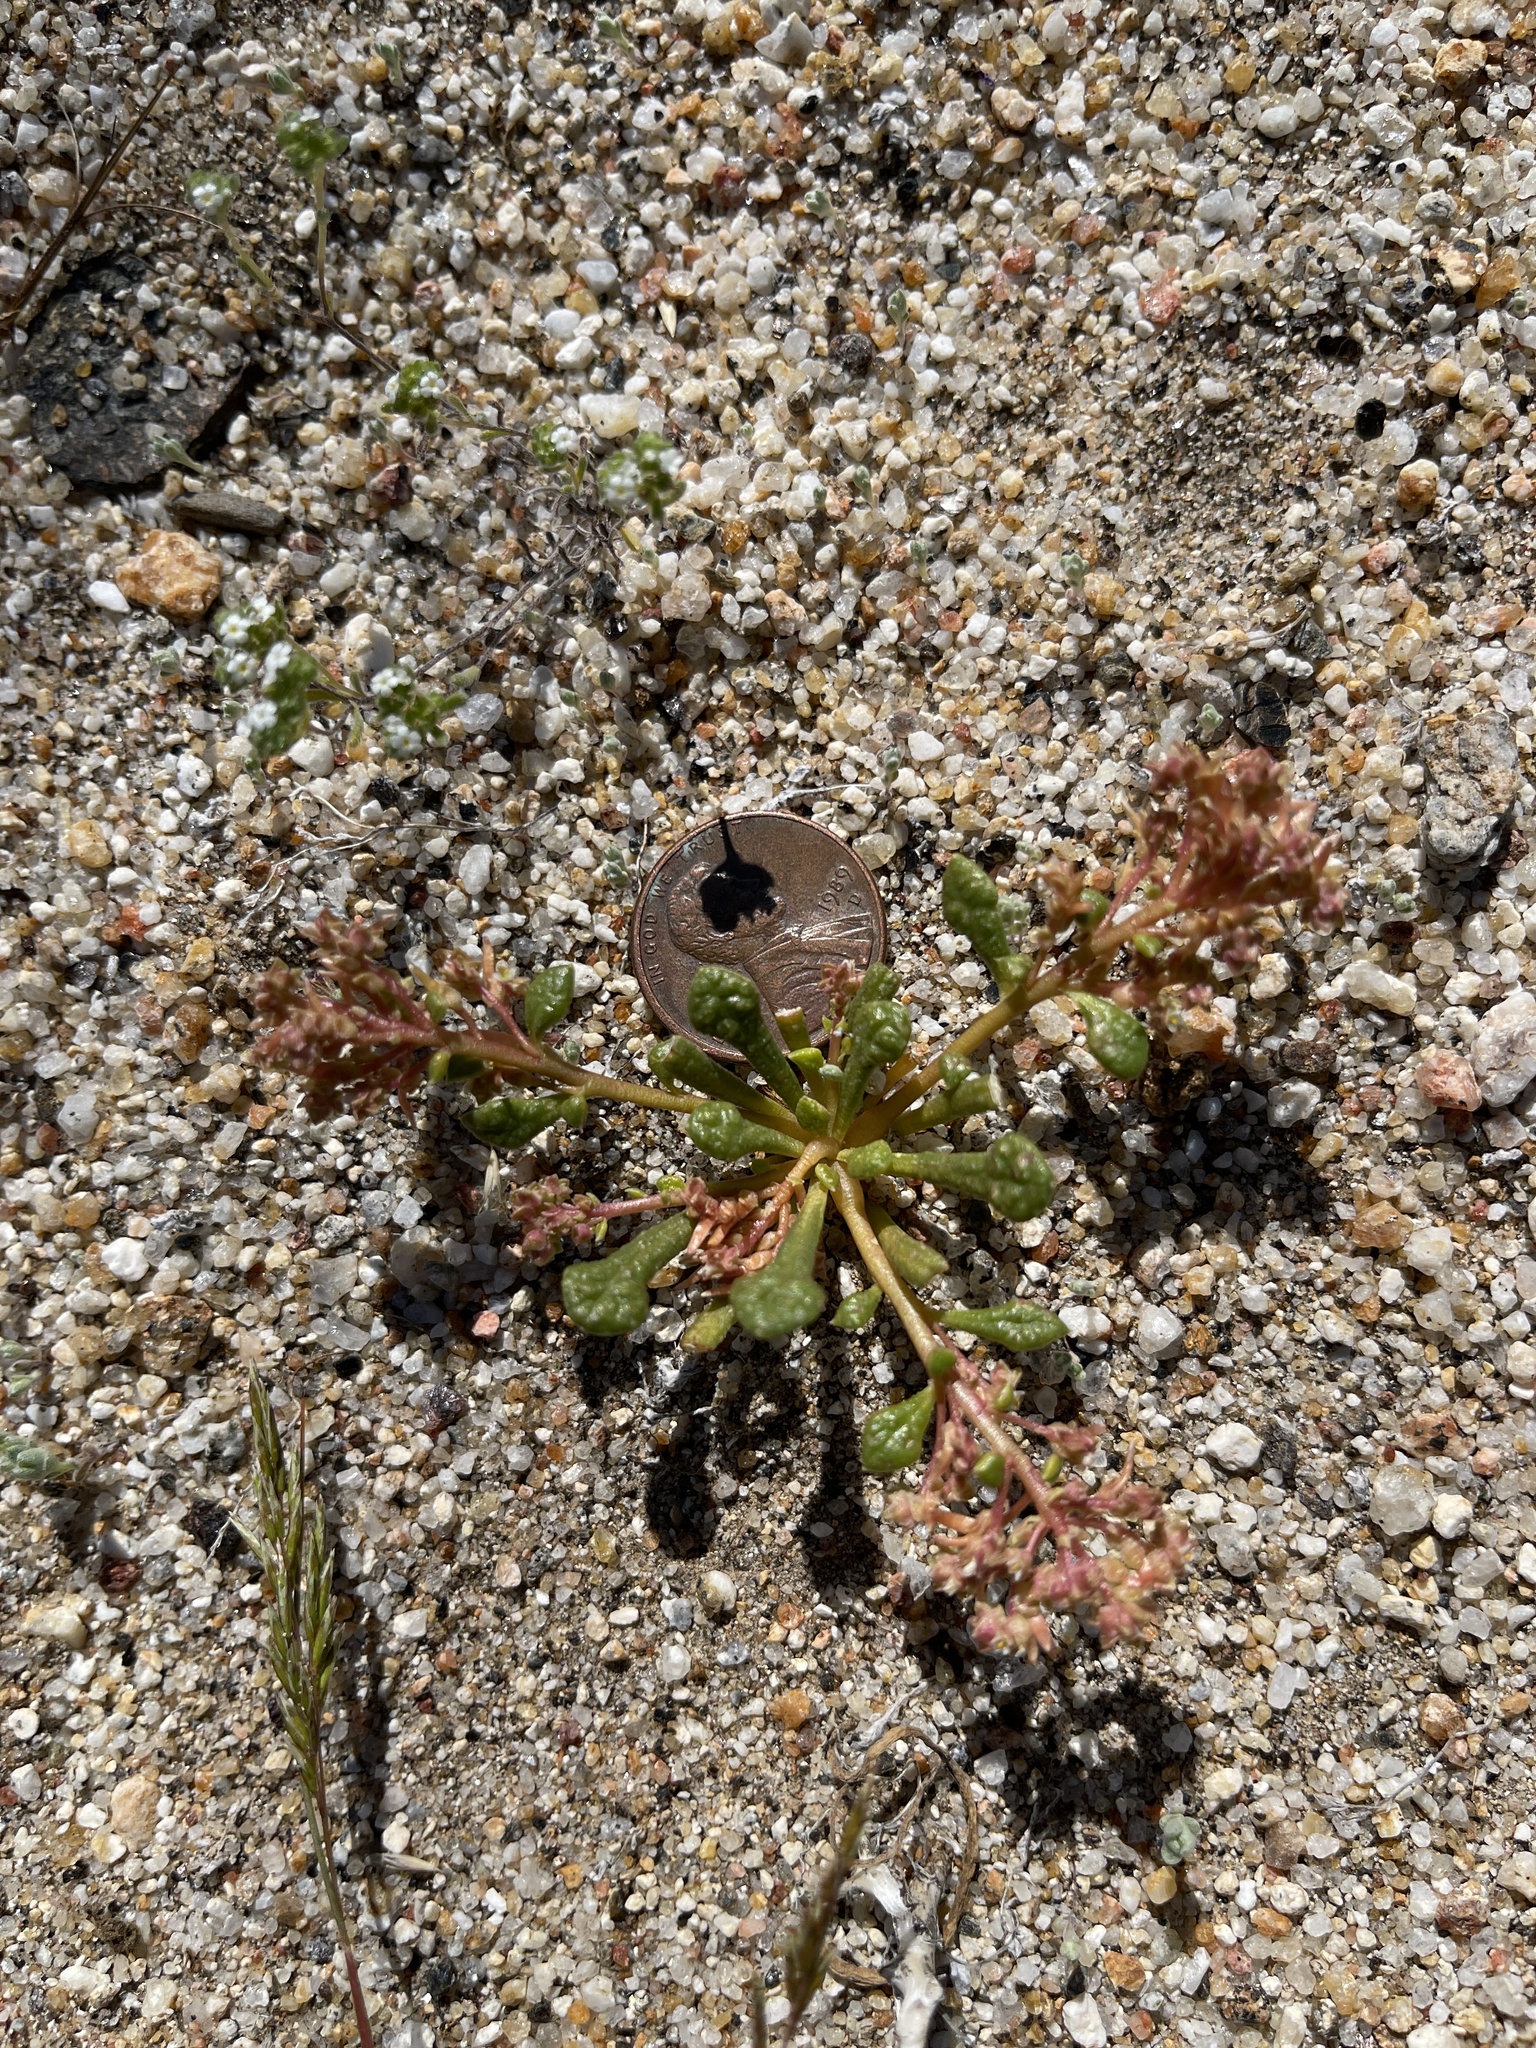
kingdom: Plantae
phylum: Tracheophyta
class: Magnoliopsida
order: Caryophyllales
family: Montiaceae
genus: Calyptridium
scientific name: Calyptridium monandrum
